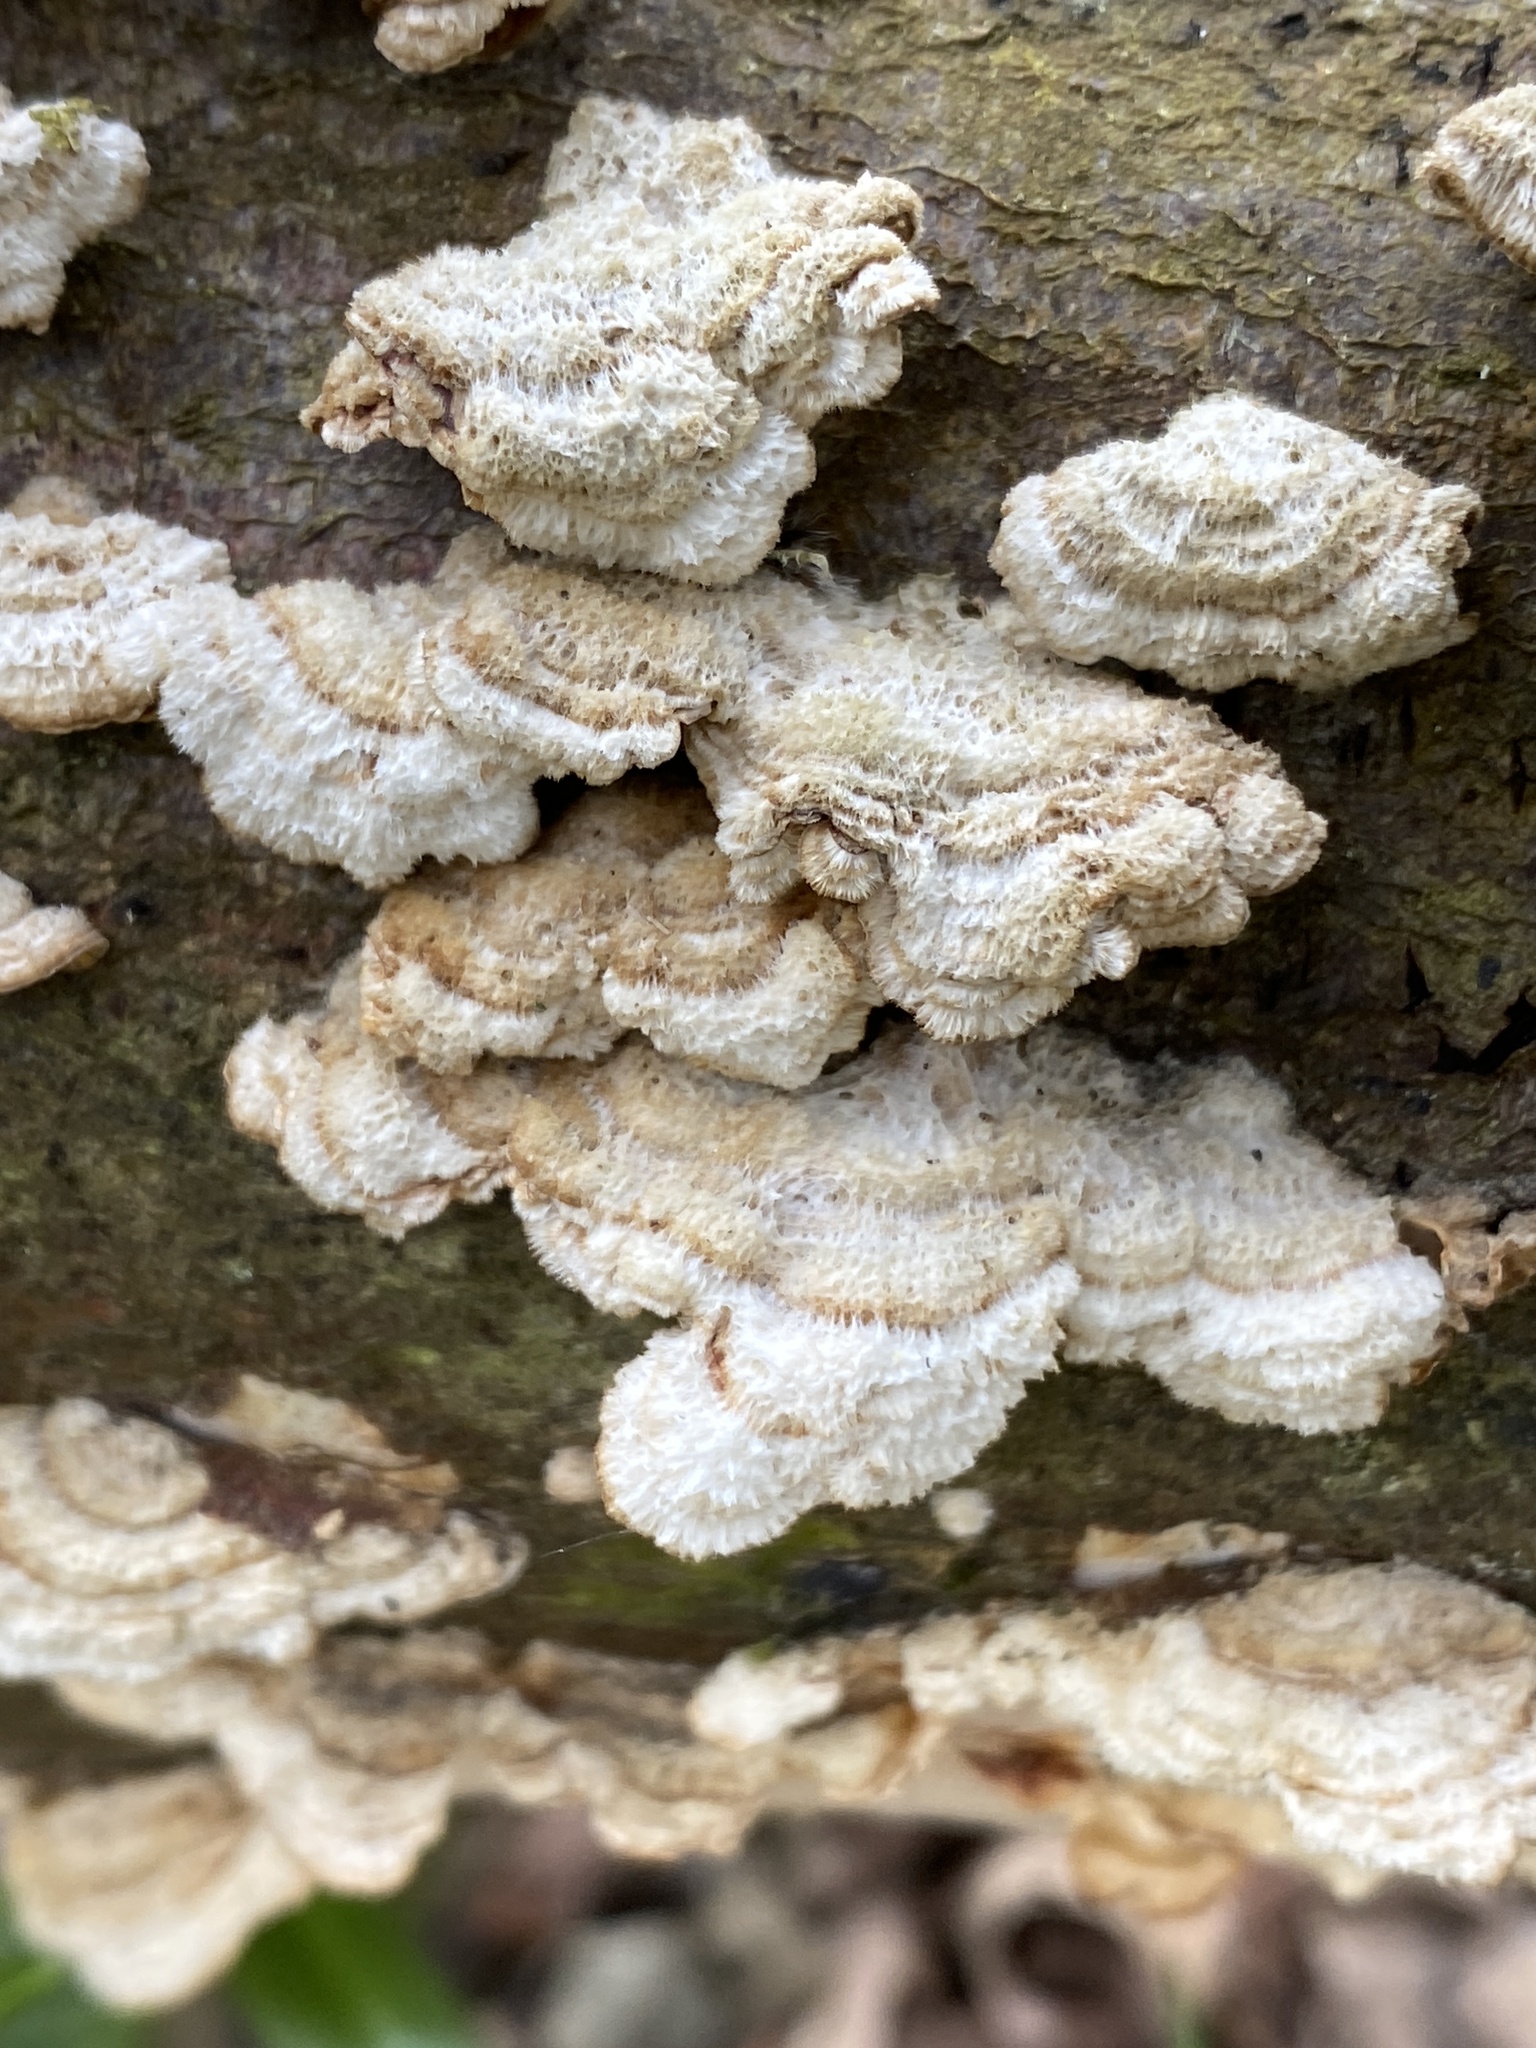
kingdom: Fungi
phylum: Basidiomycota
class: Agaricomycetes
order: Russulales
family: Stereaceae
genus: Stereum
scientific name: Stereum hirsutum
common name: Hairy curtain crust
